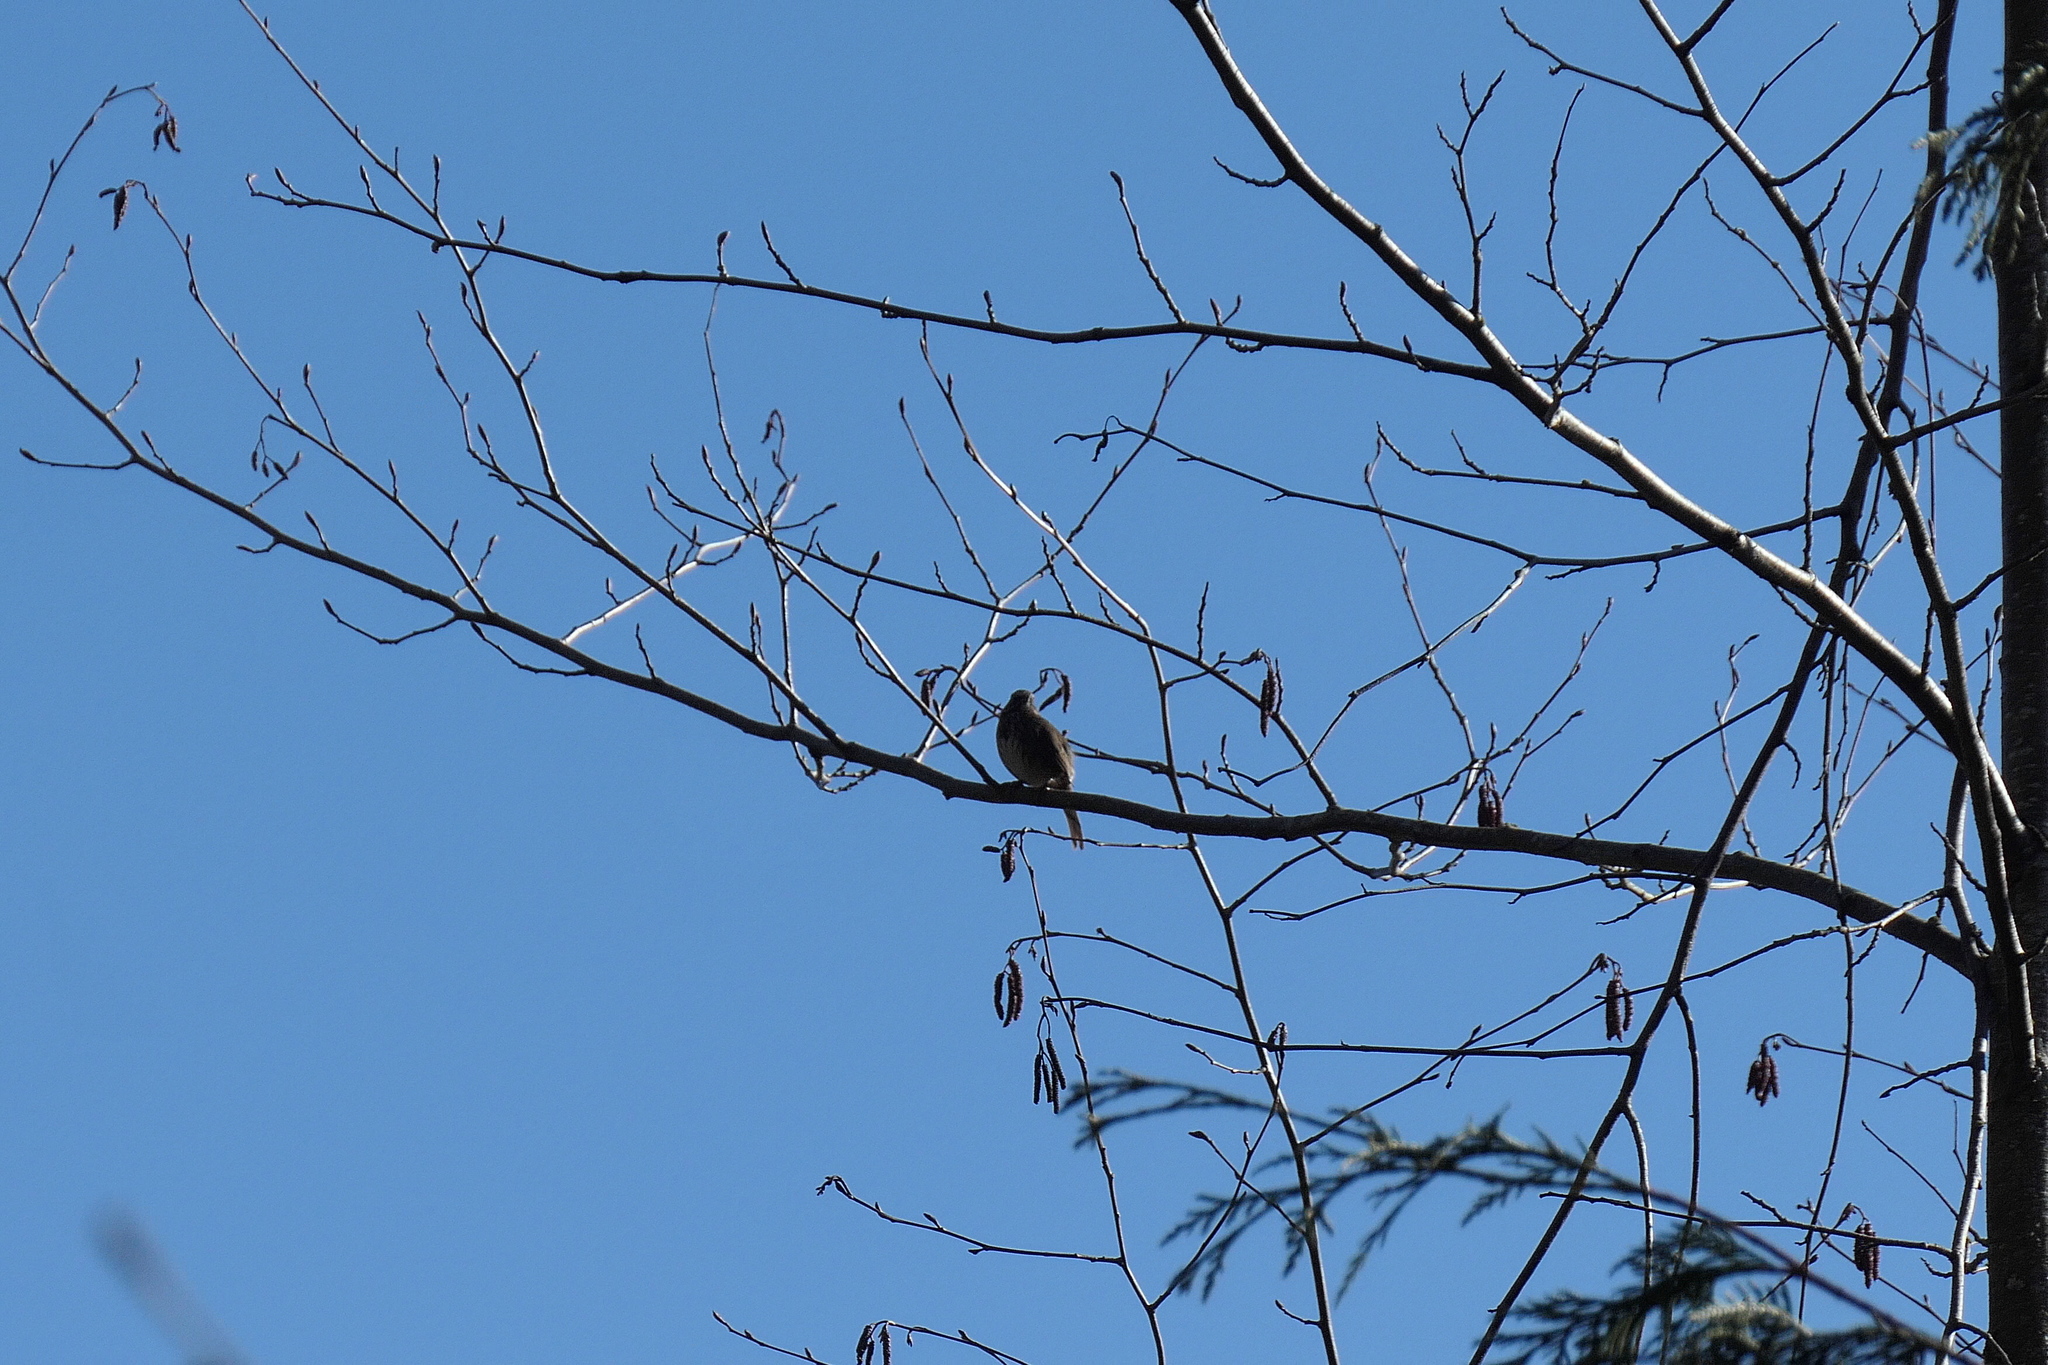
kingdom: Animalia
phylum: Chordata
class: Aves
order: Passeriformes
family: Passerellidae
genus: Melospiza
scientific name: Melospiza melodia
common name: Song sparrow
